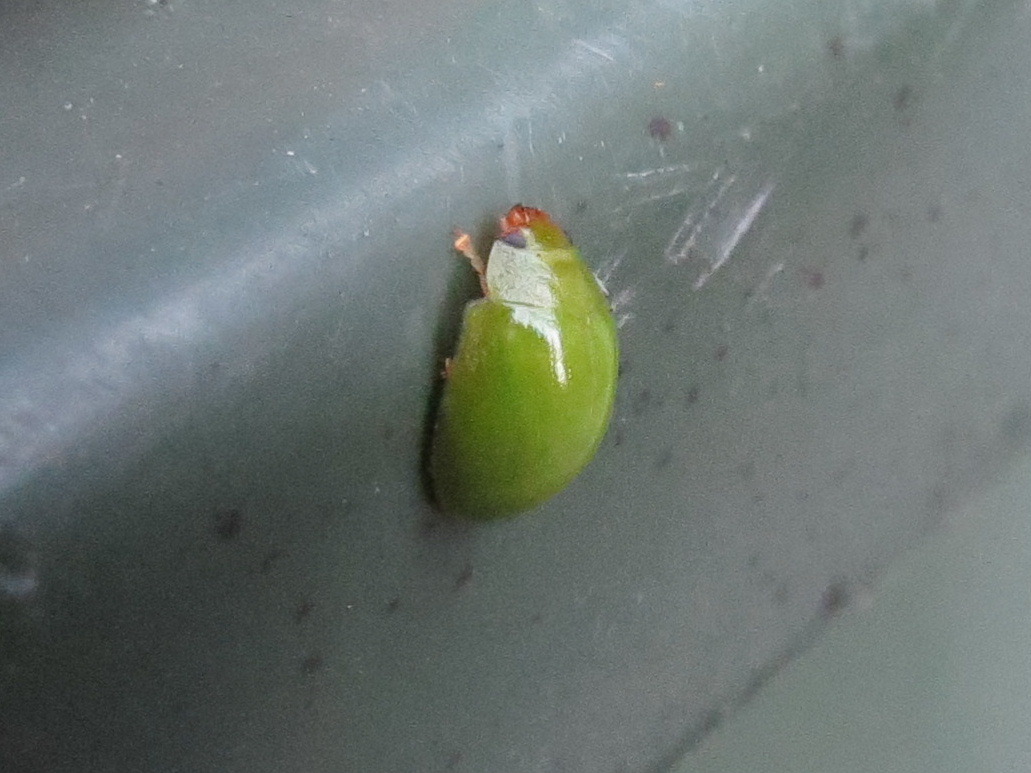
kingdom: Animalia
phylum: Arthropoda
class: Insecta
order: Coleoptera
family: Chrysomelidae
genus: Paropsides
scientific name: Paropsides
